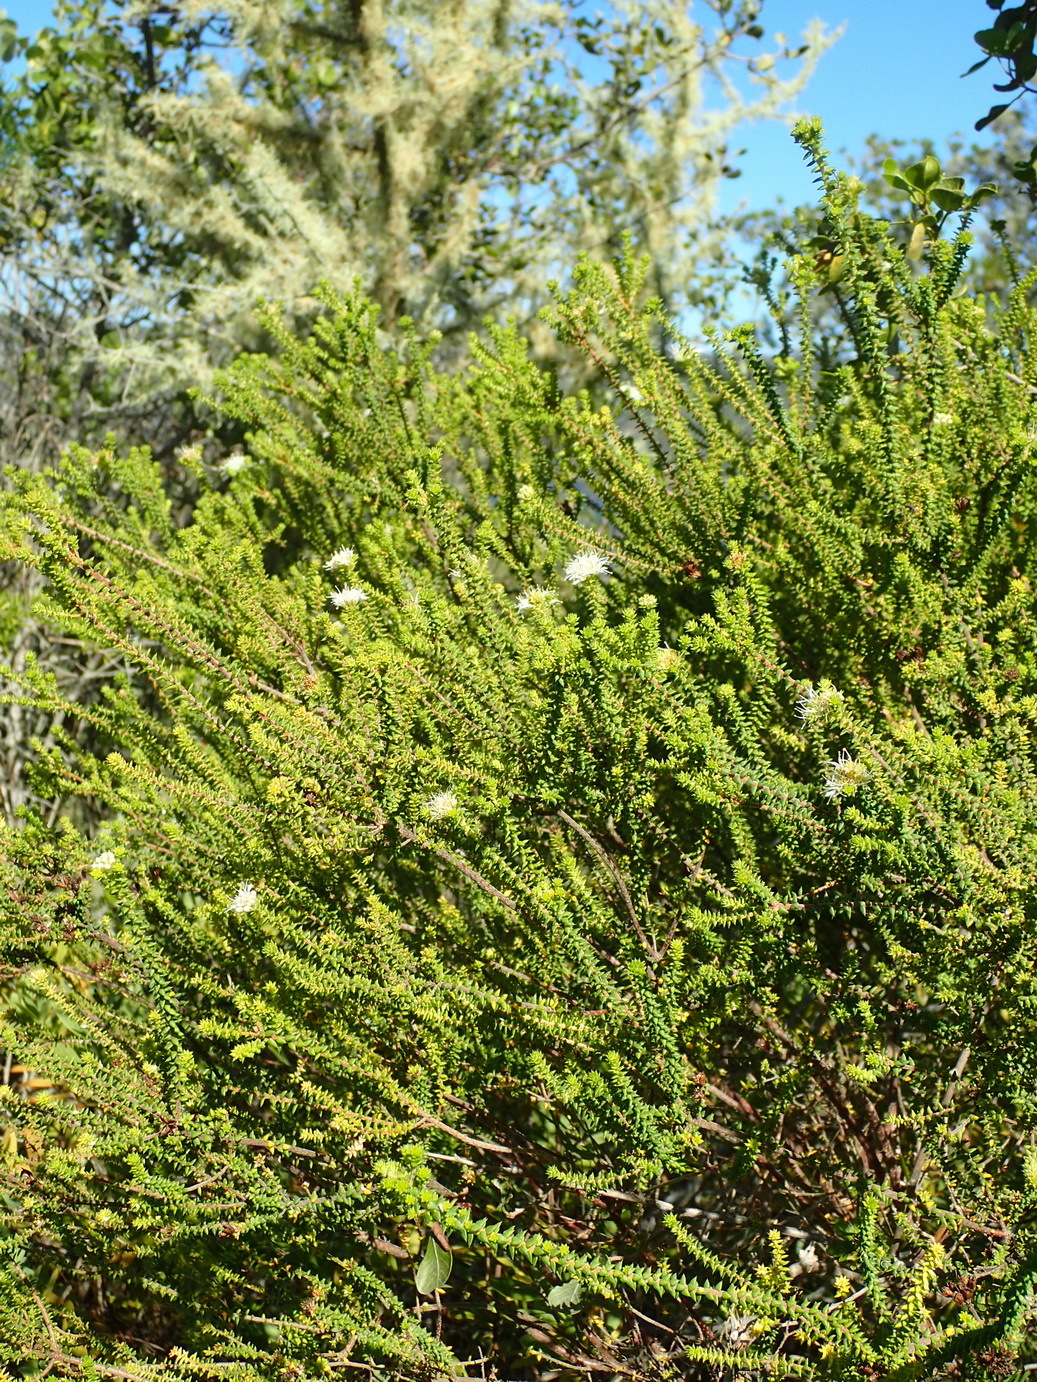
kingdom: Plantae
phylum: Tracheophyta
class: Magnoliopsida
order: Sapindales
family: Rutaceae
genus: Agathosma
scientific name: Agathosma apiculata
